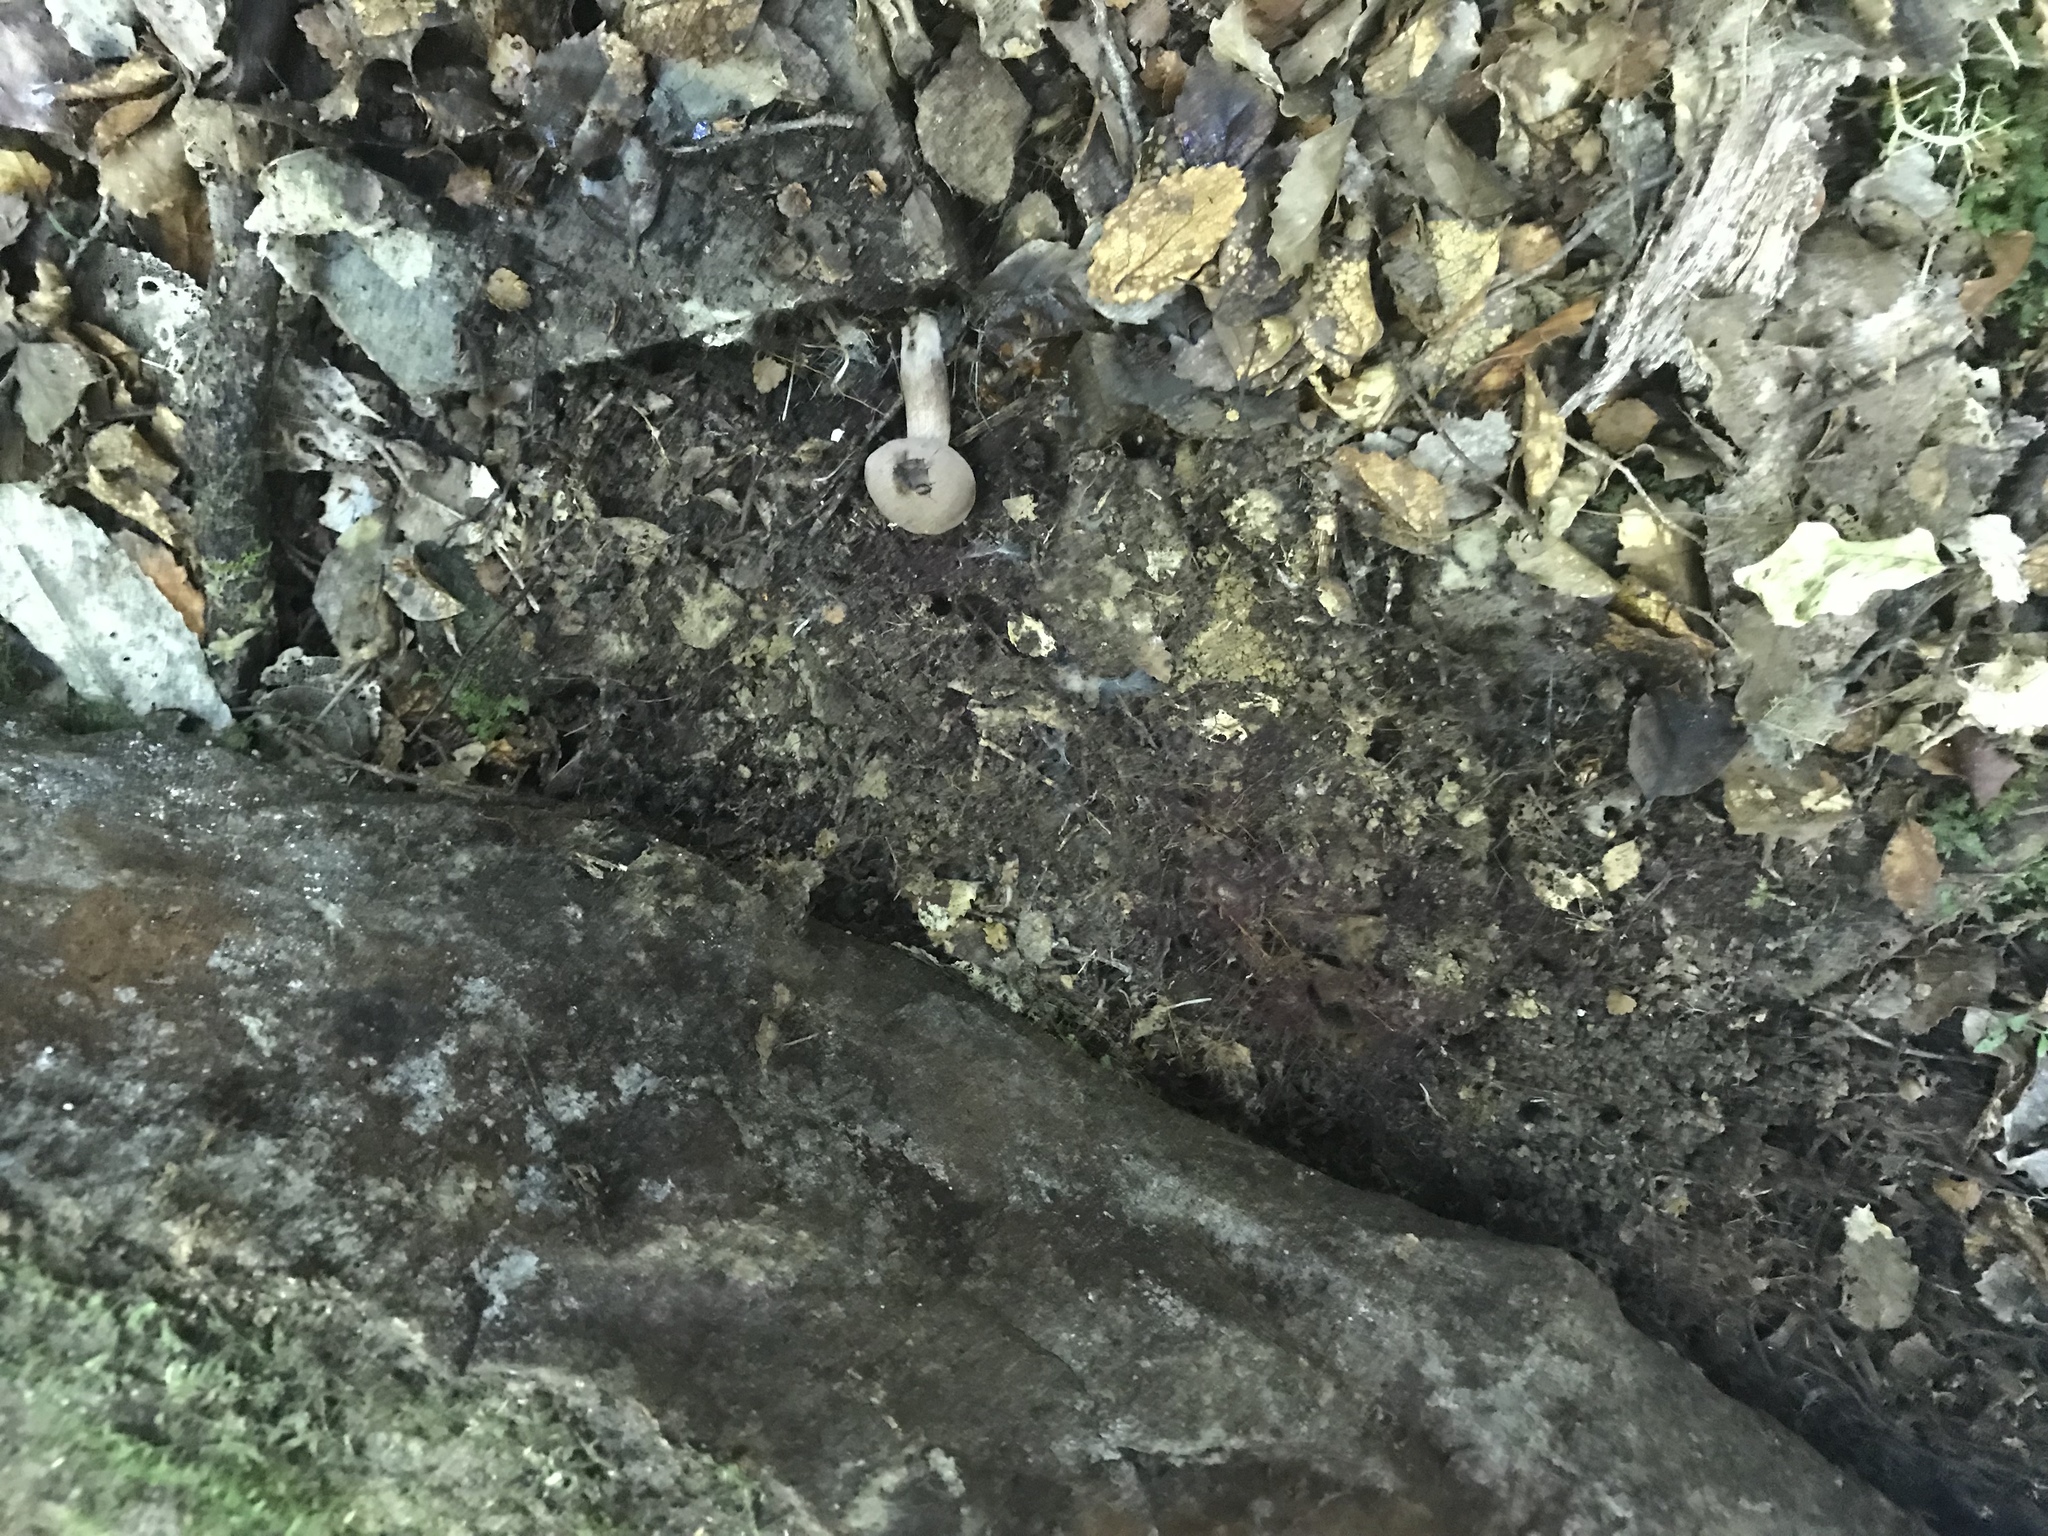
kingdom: Fungi
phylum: Basidiomycota
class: Agaricomycetes
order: Boletales
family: Boletaceae
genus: Porphyrellus
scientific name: Porphyrellus brunneus
